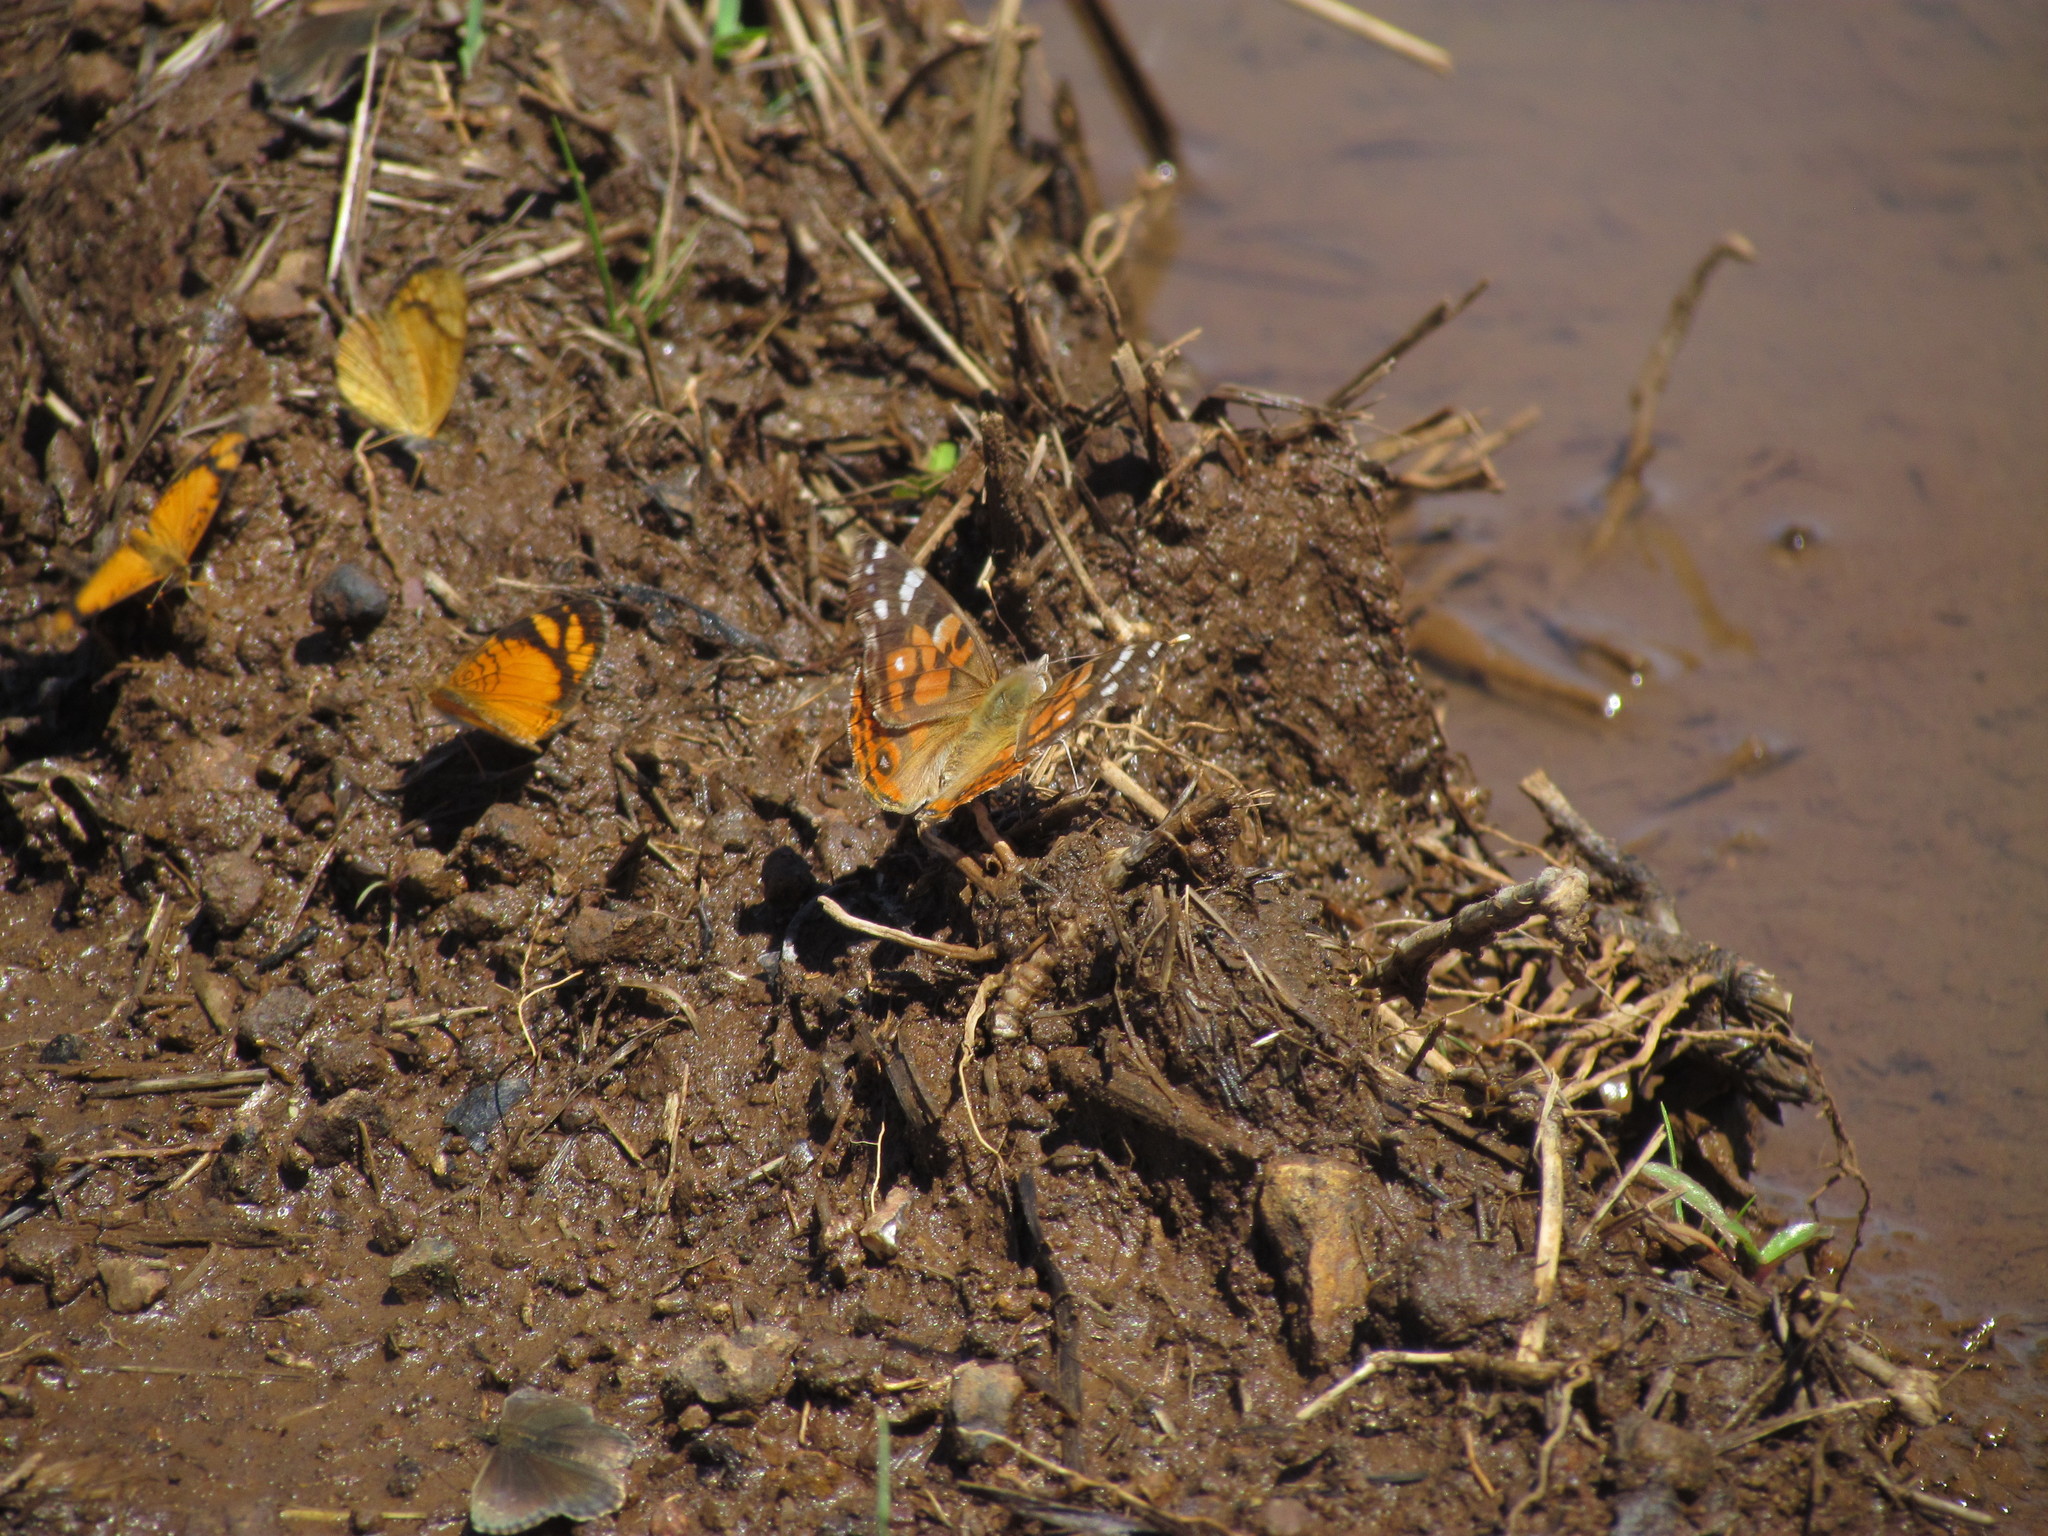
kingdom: Animalia
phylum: Arthropoda
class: Insecta
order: Lepidoptera
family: Nymphalidae
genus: Vanessa
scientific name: Vanessa braziliensis
